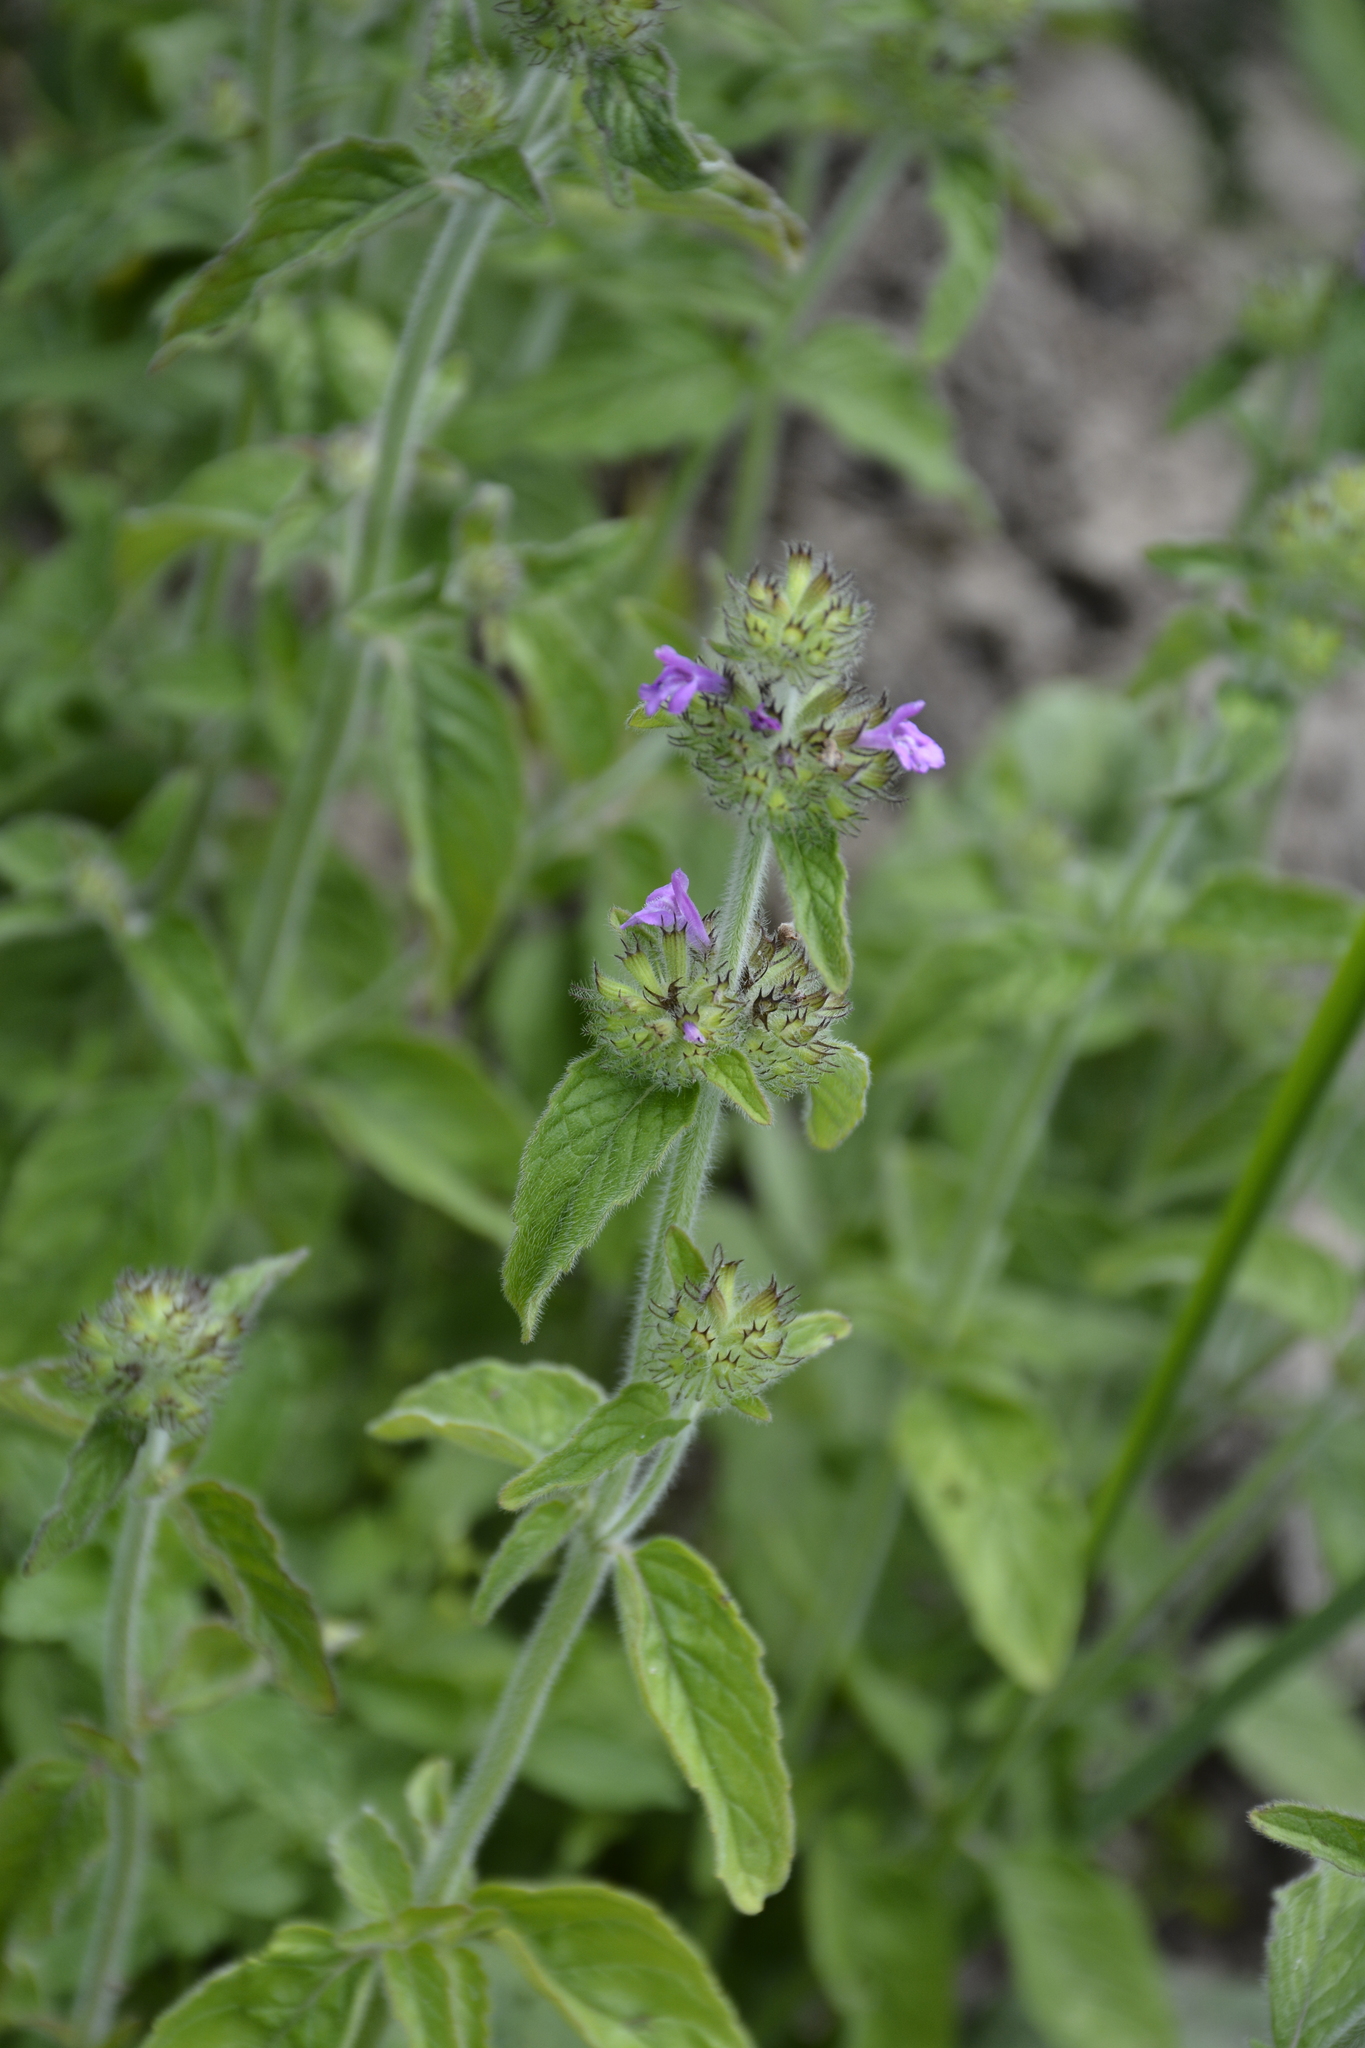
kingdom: Plantae
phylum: Tracheophyta
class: Magnoliopsida
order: Lamiales
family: Lamiaceae
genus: Clinopodium
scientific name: Clinopodium vulgare
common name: Wild basil
